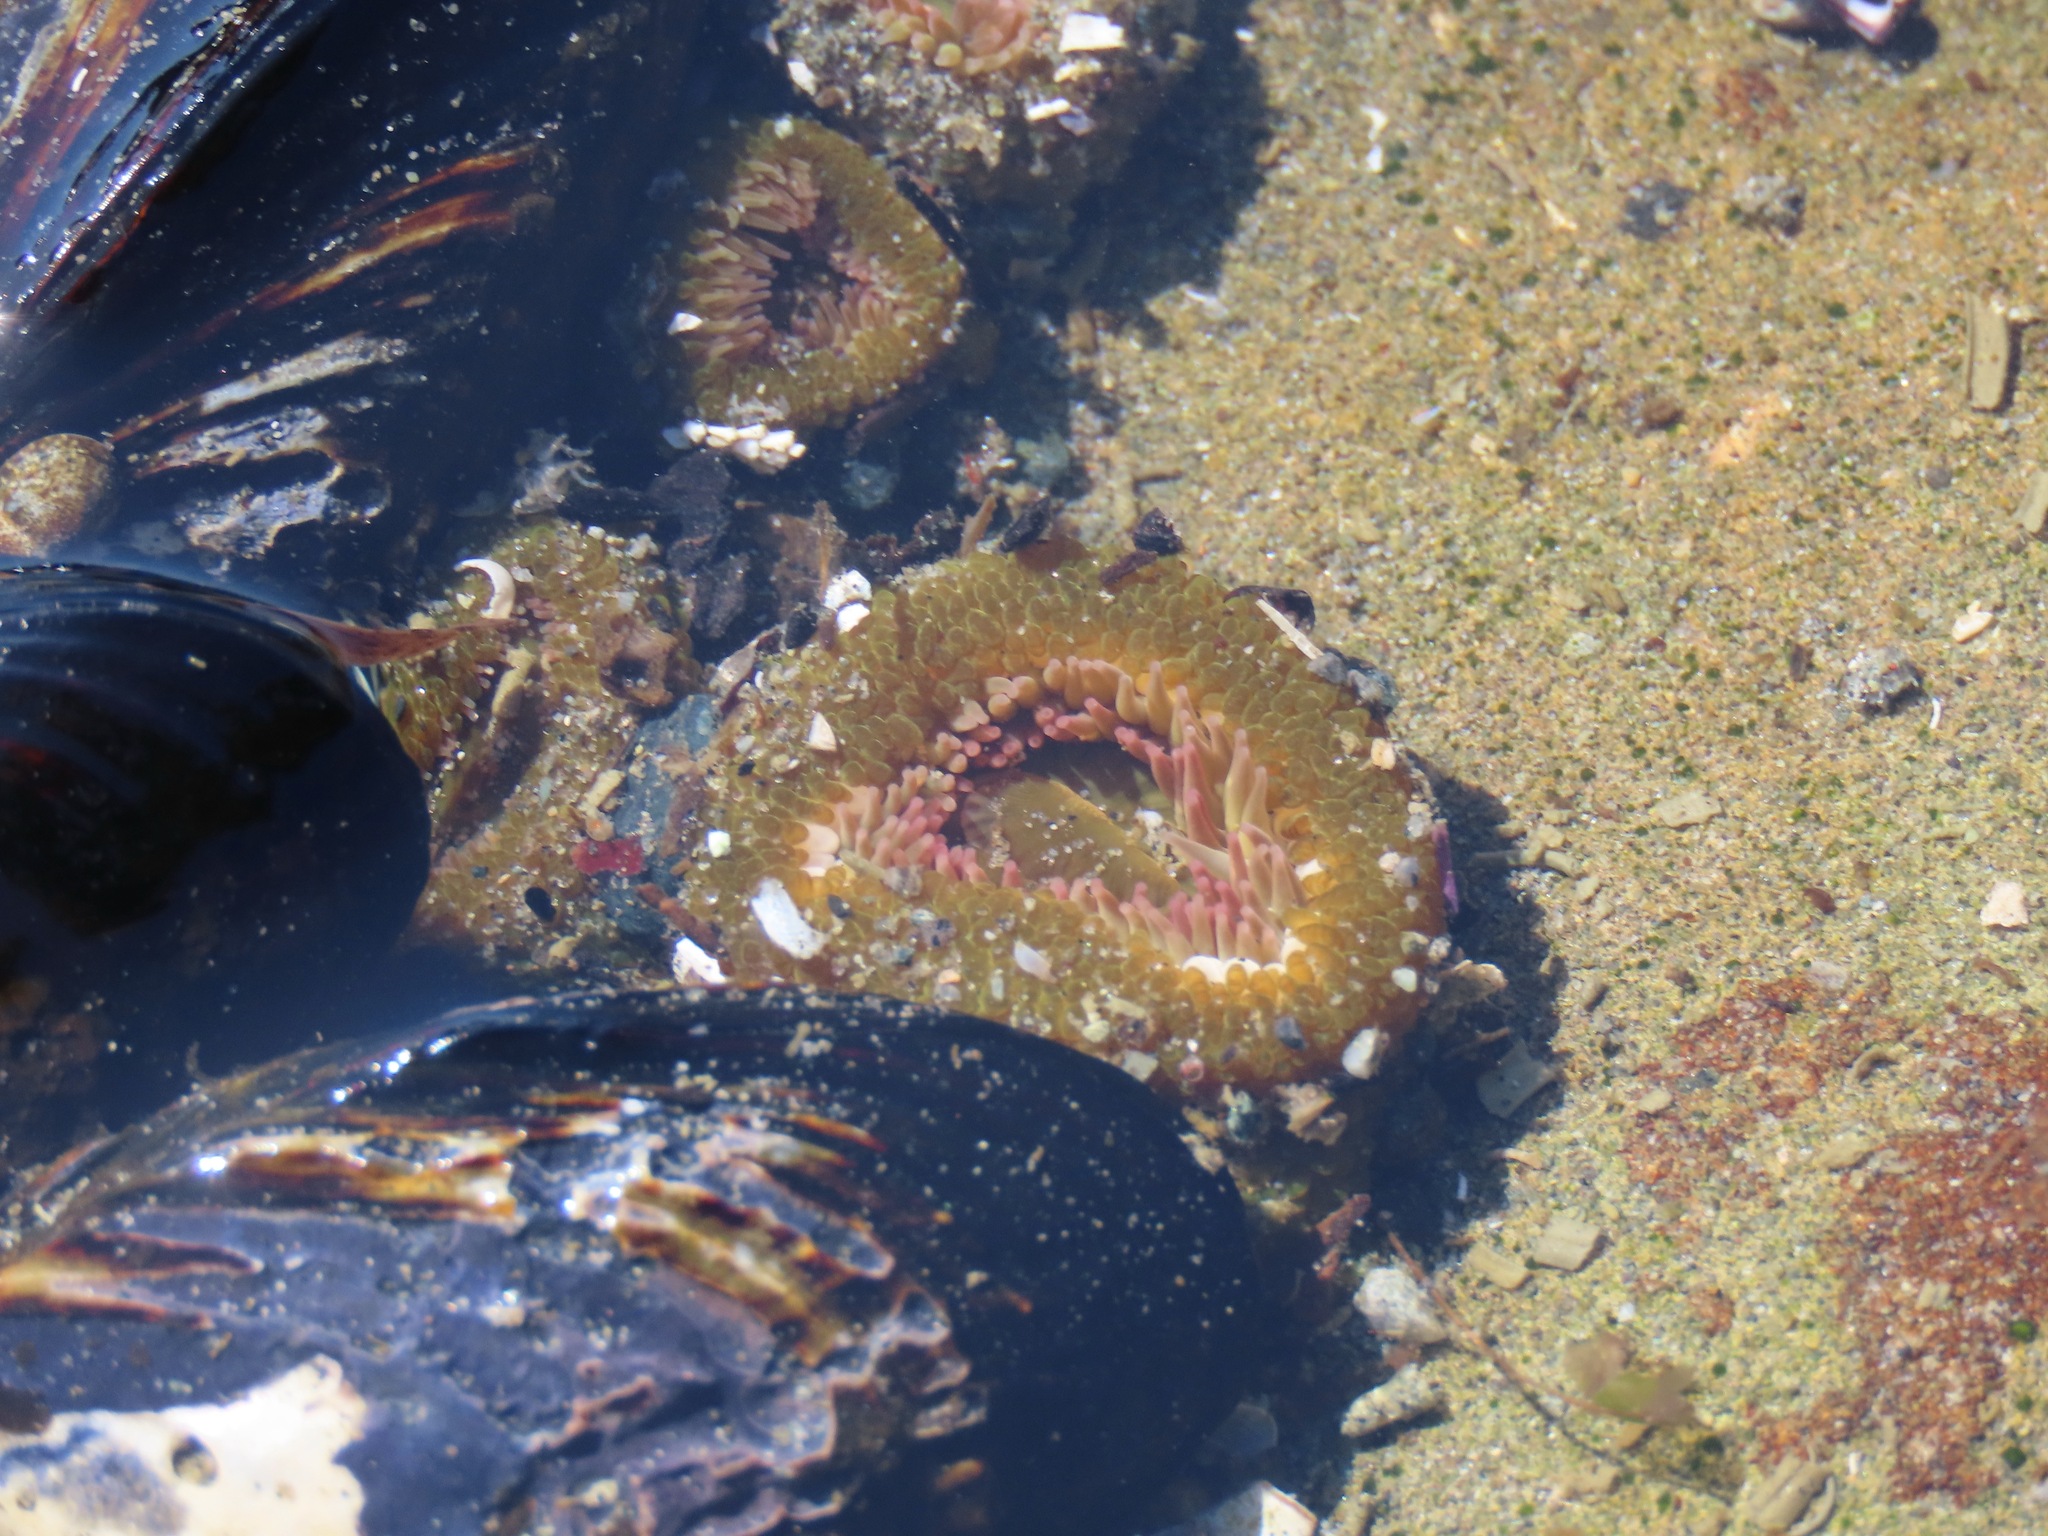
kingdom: Animalia
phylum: Cnidaria
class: Anthozoa
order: Actiniaria
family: Actiniidae
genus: Anthopleura
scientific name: Anthopleura elegantissima
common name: Clonal anemone
